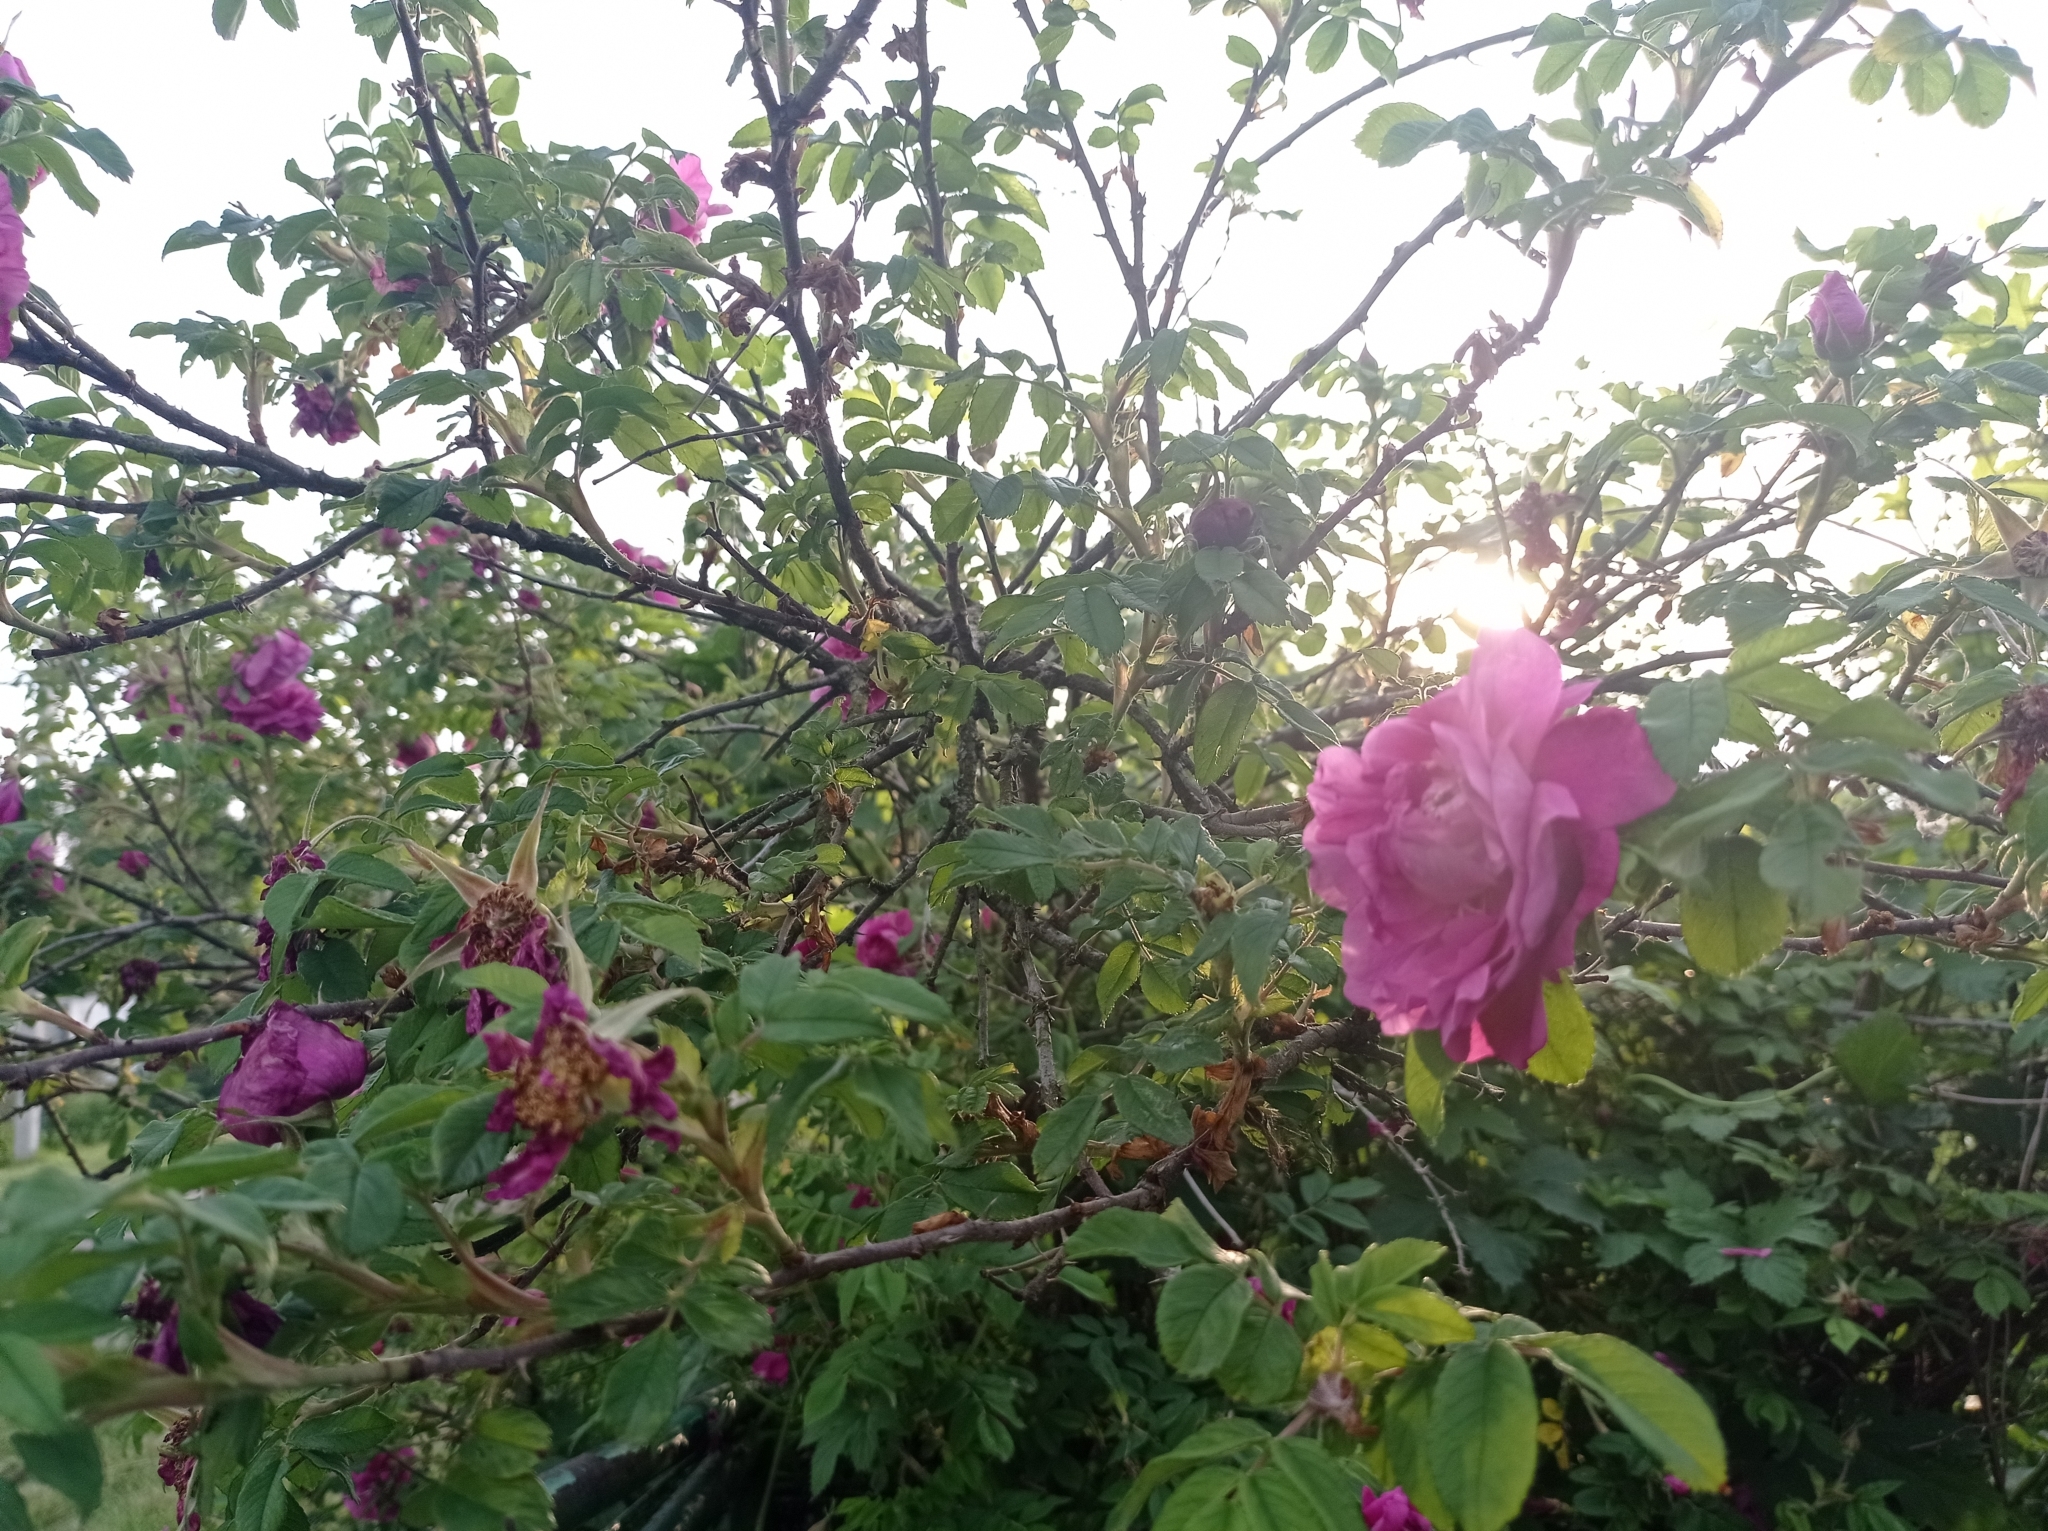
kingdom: Plantae
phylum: Tracheophyta
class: Magnoliopsida
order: Rosales
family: Rosaceae
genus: Rosa
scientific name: Rosa rugosa
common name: Japanese rose
